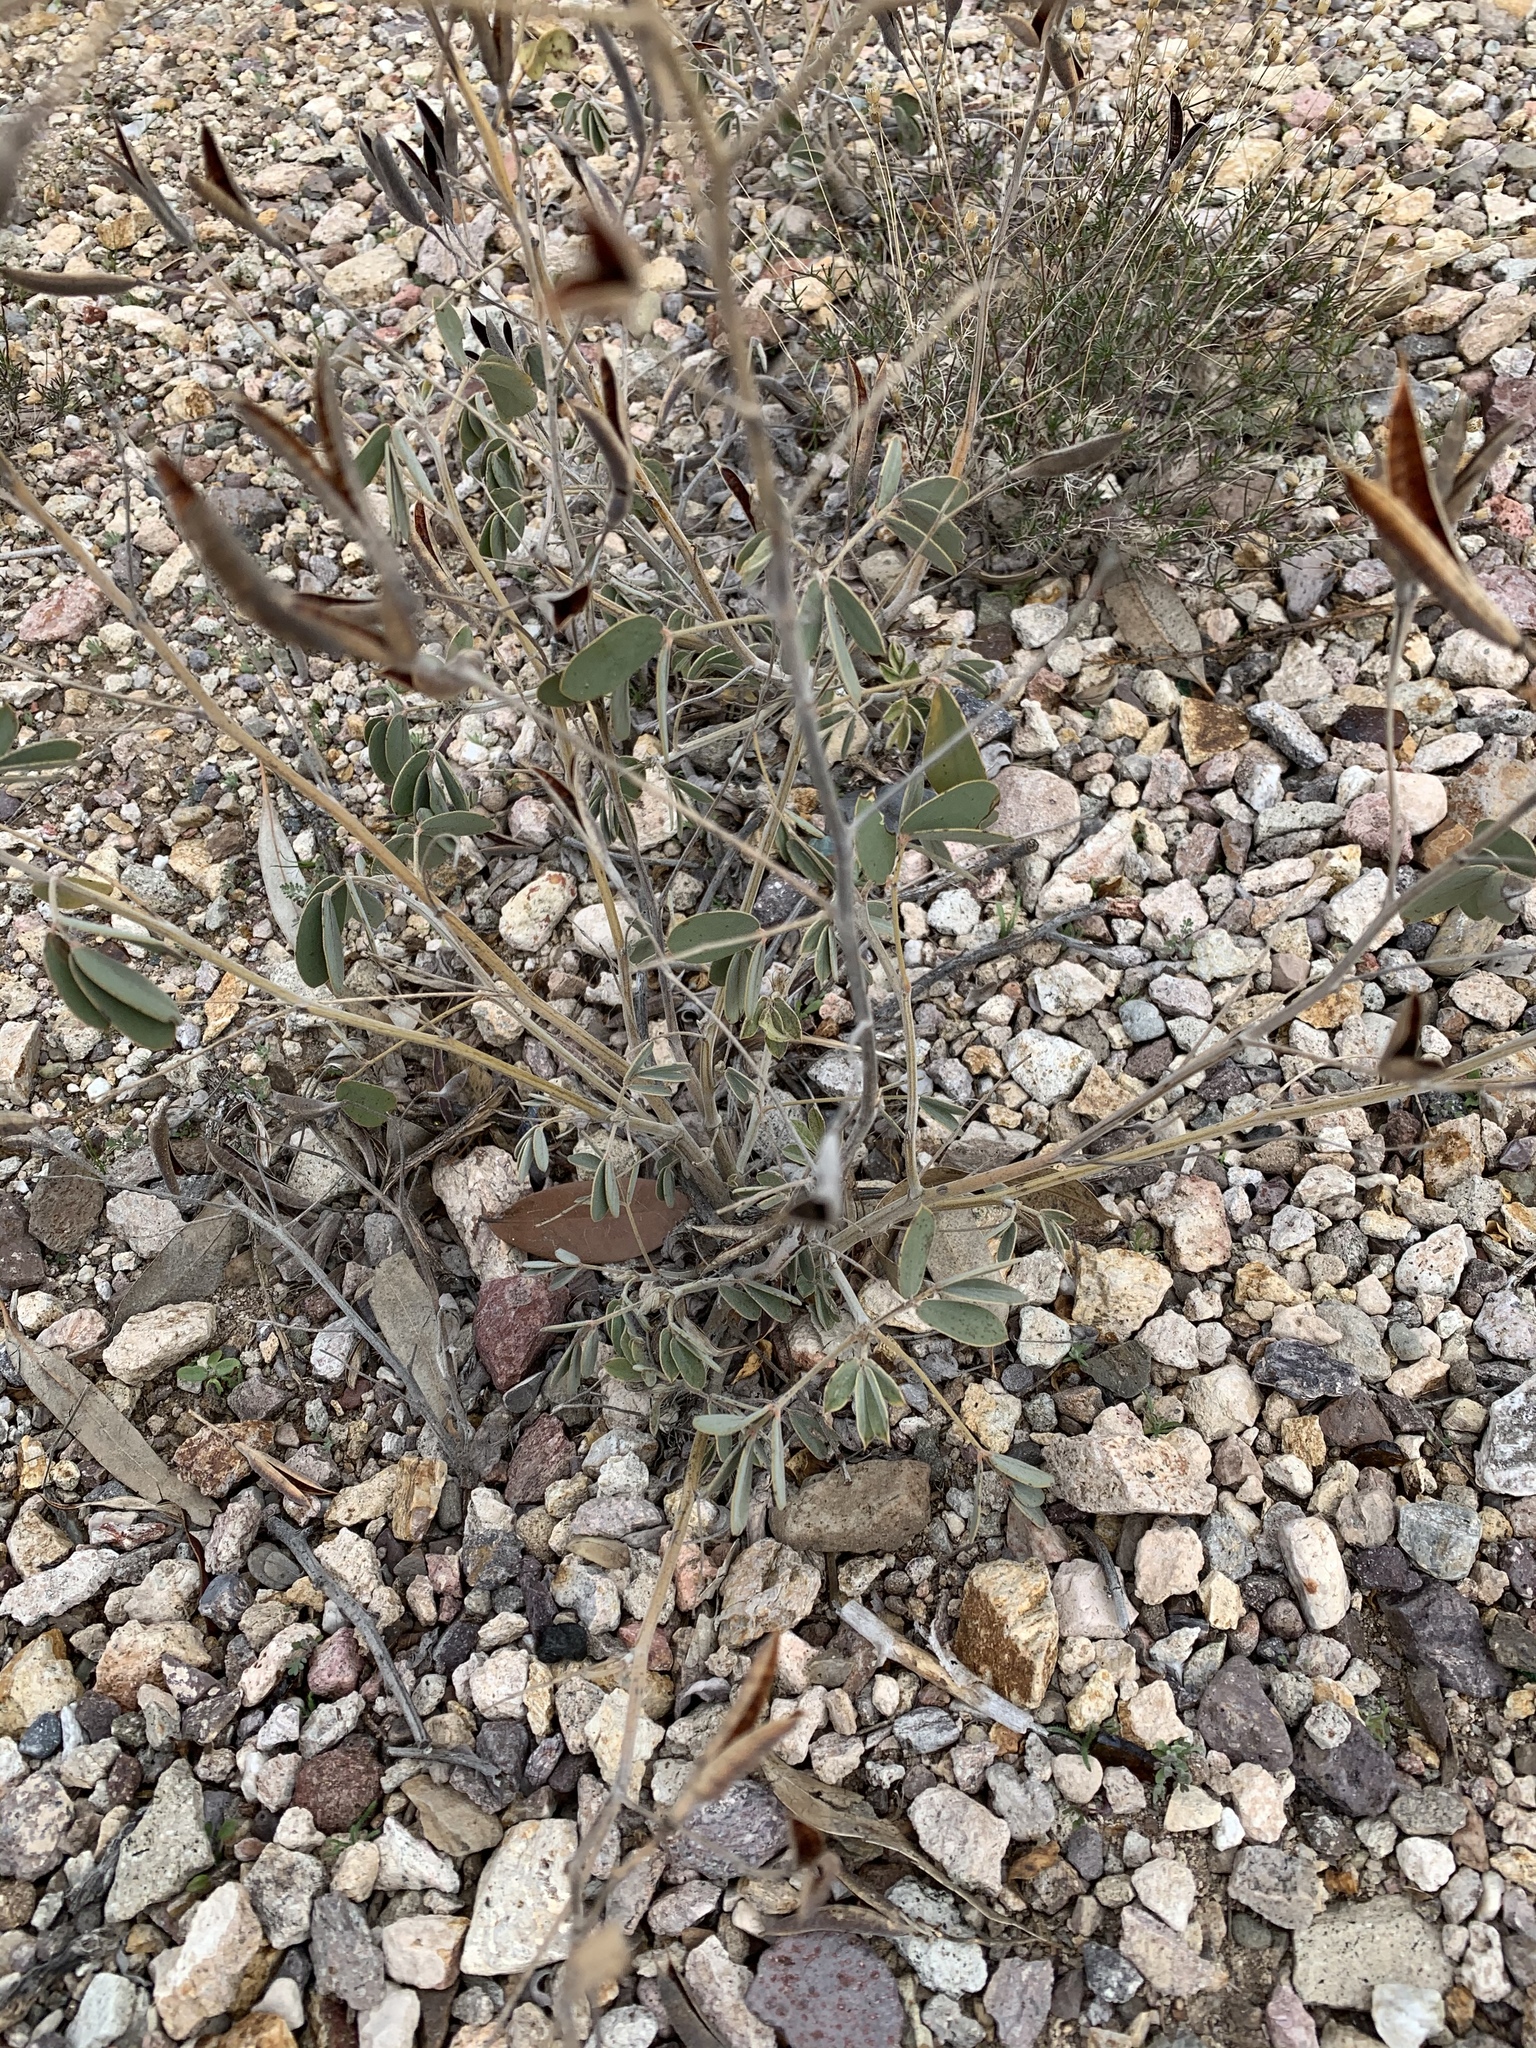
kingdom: Plantae
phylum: Tracheophyta
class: Magnoliopsida
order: Fabales
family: Fabaceae
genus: Senna
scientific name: Senna covesii
